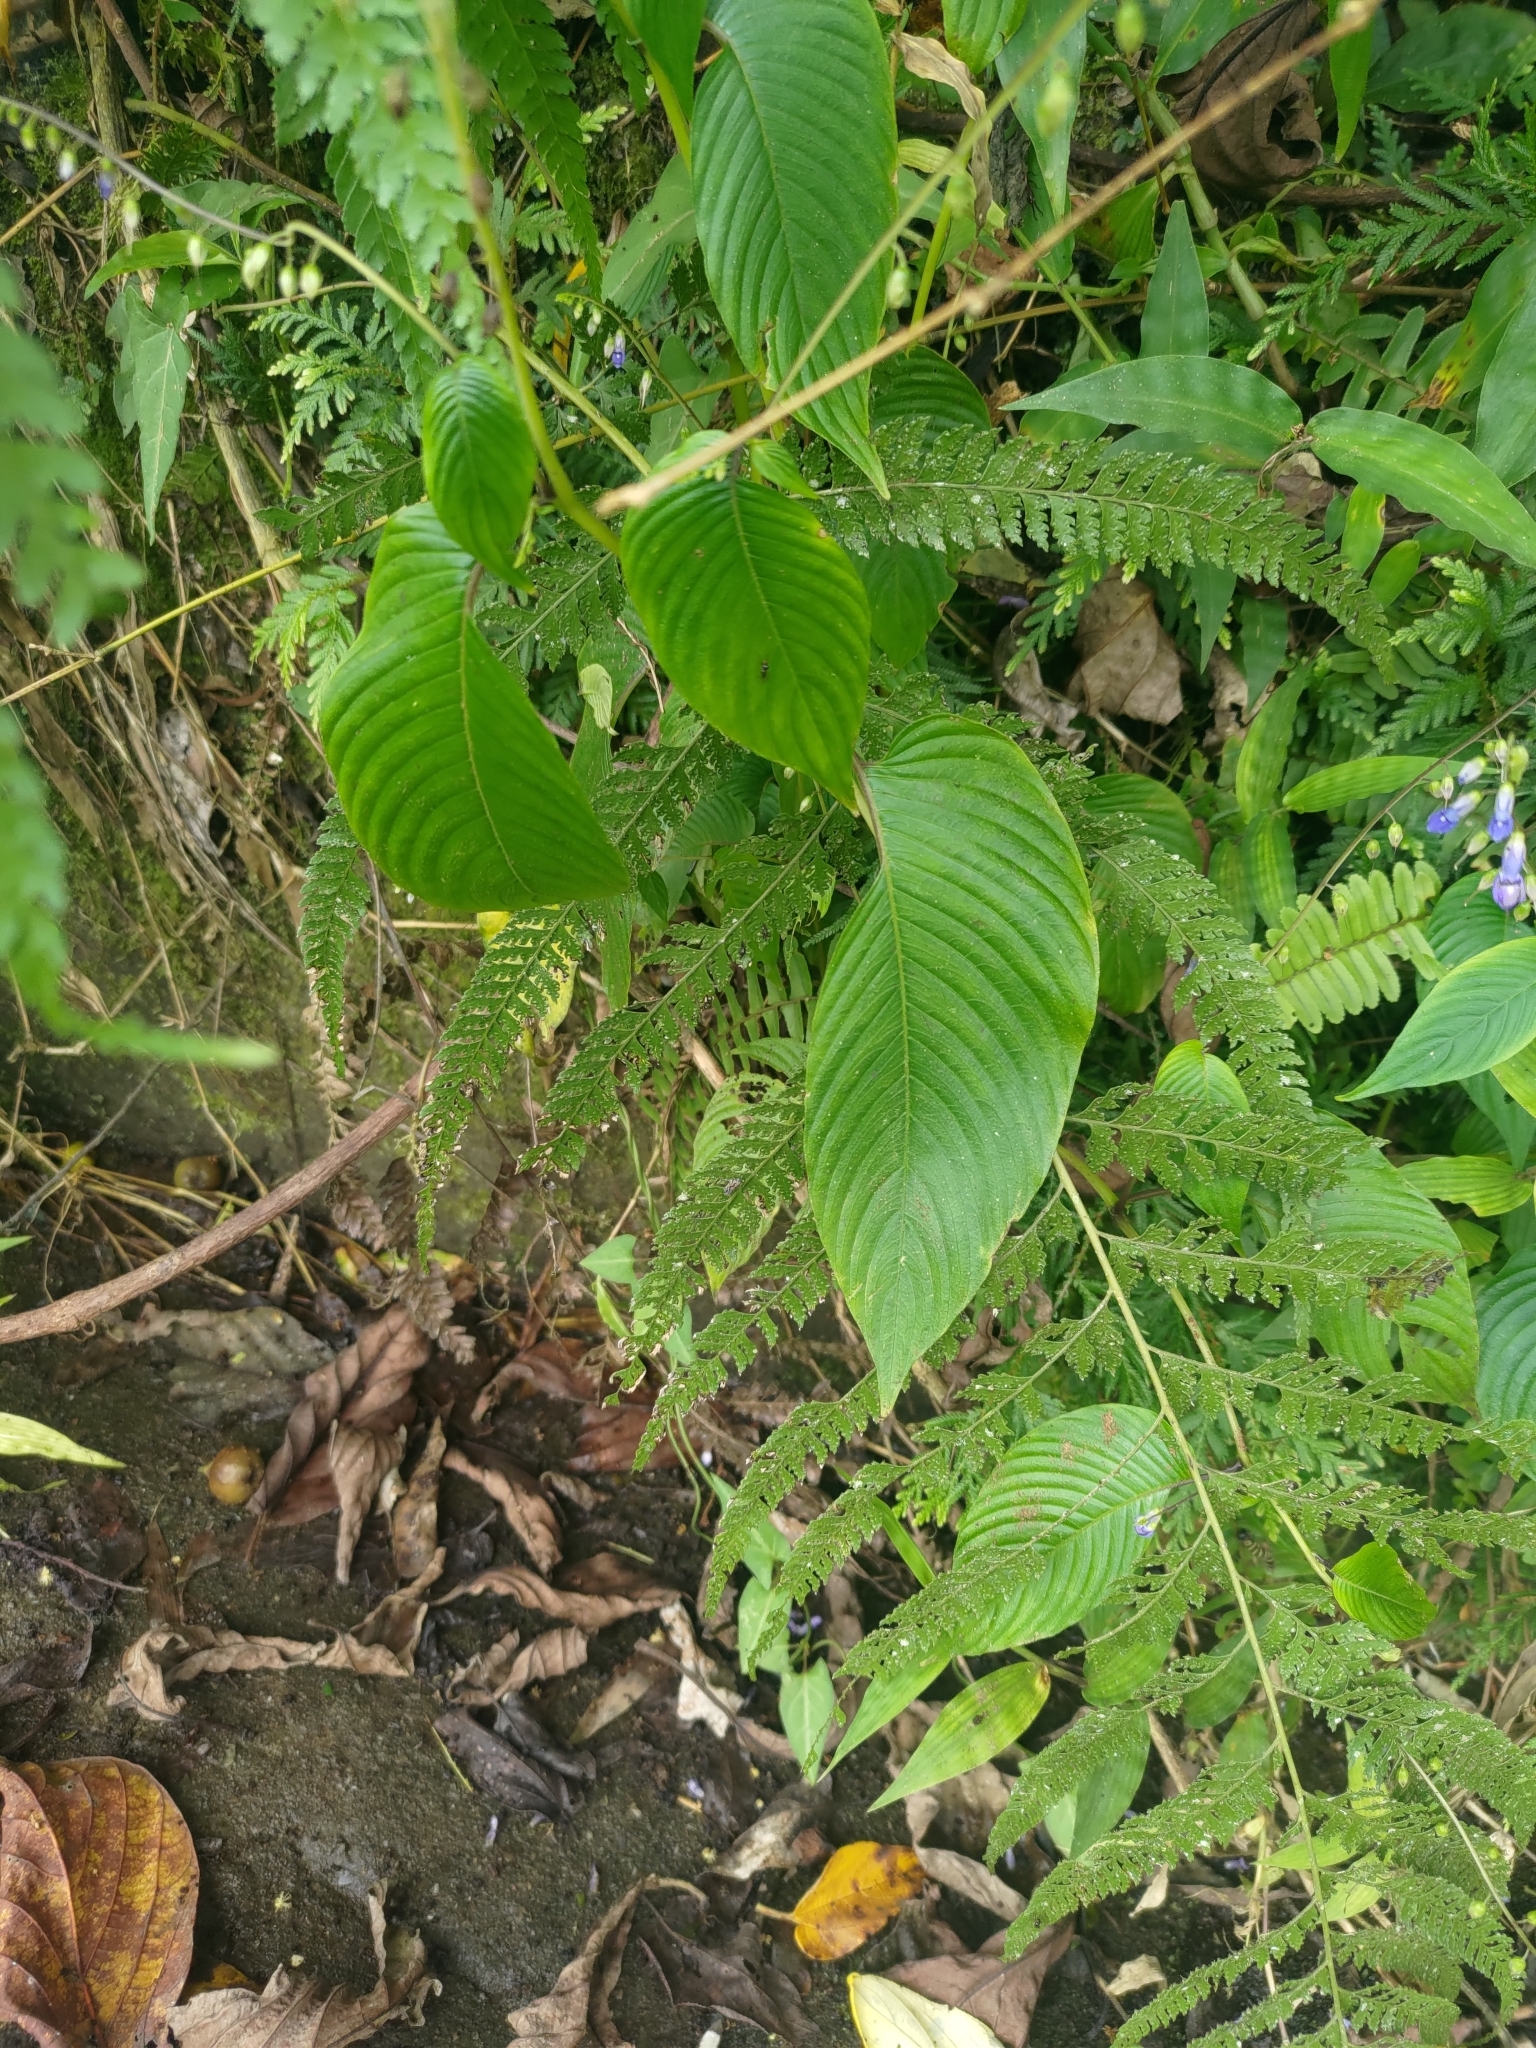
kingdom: Plantae
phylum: Tracheophyta
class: Magnoliopsida
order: Lamiales
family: Gesneriaceae
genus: Rhynchoglossum
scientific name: Rhynchoglossum obliquum
